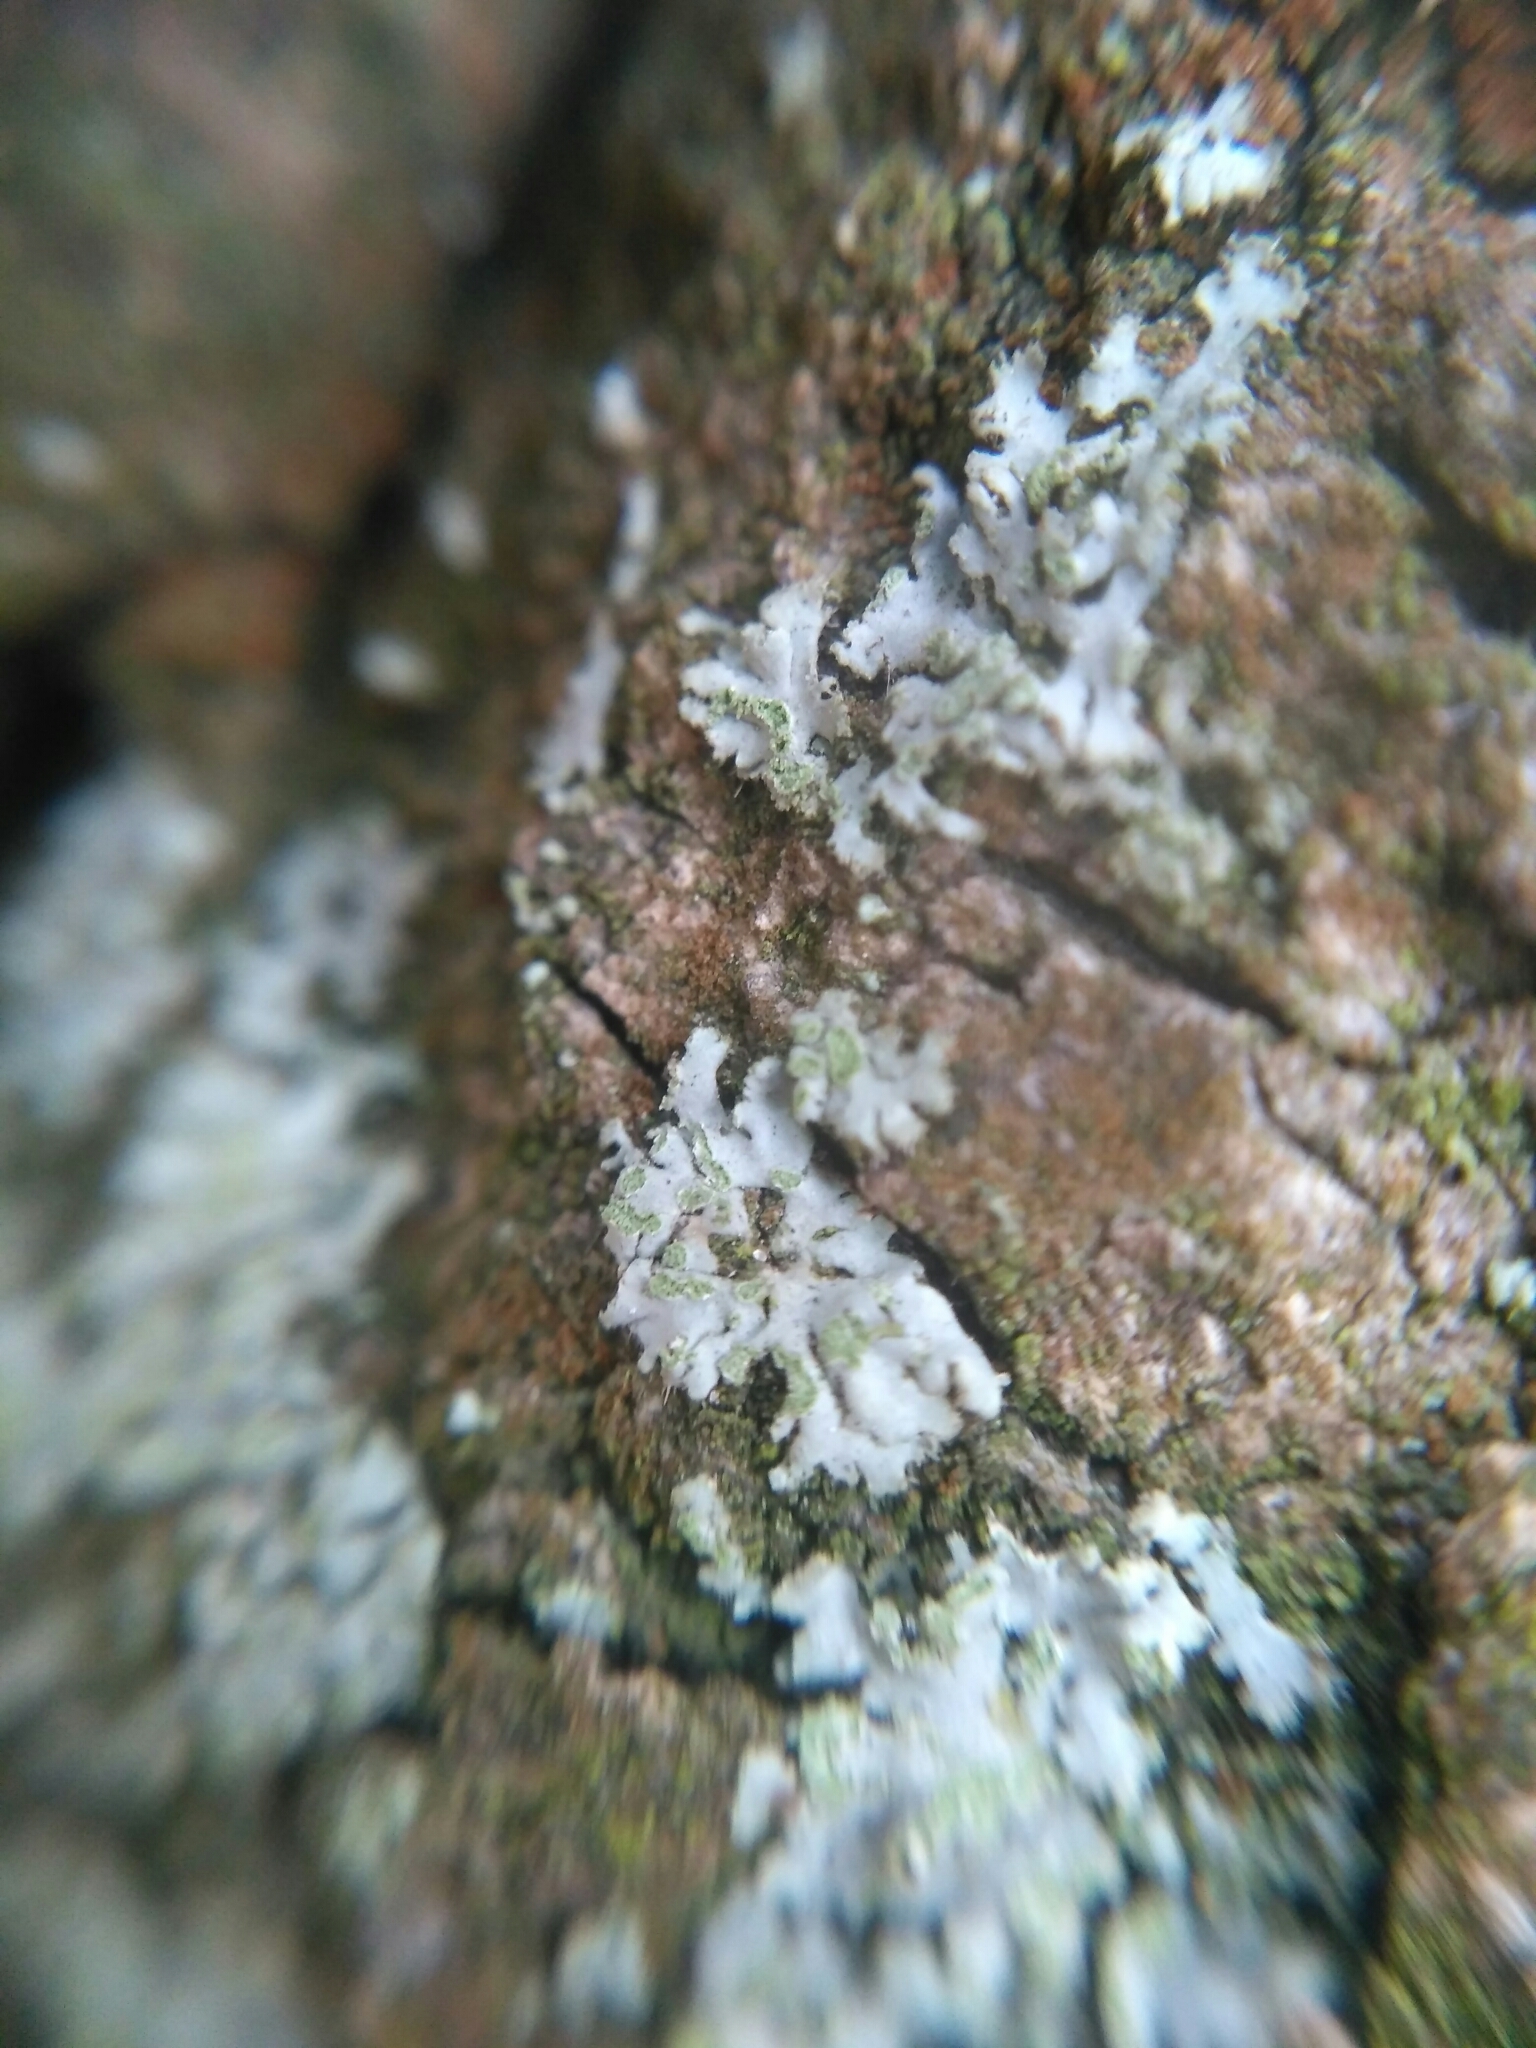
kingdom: Fungi
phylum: Ascomycota
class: Lecanoromycetes
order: Caliciales
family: Physciaceae
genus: Phaeophyscia
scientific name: Phaeophyscia orbicularis
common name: Mealy shadow lichen
